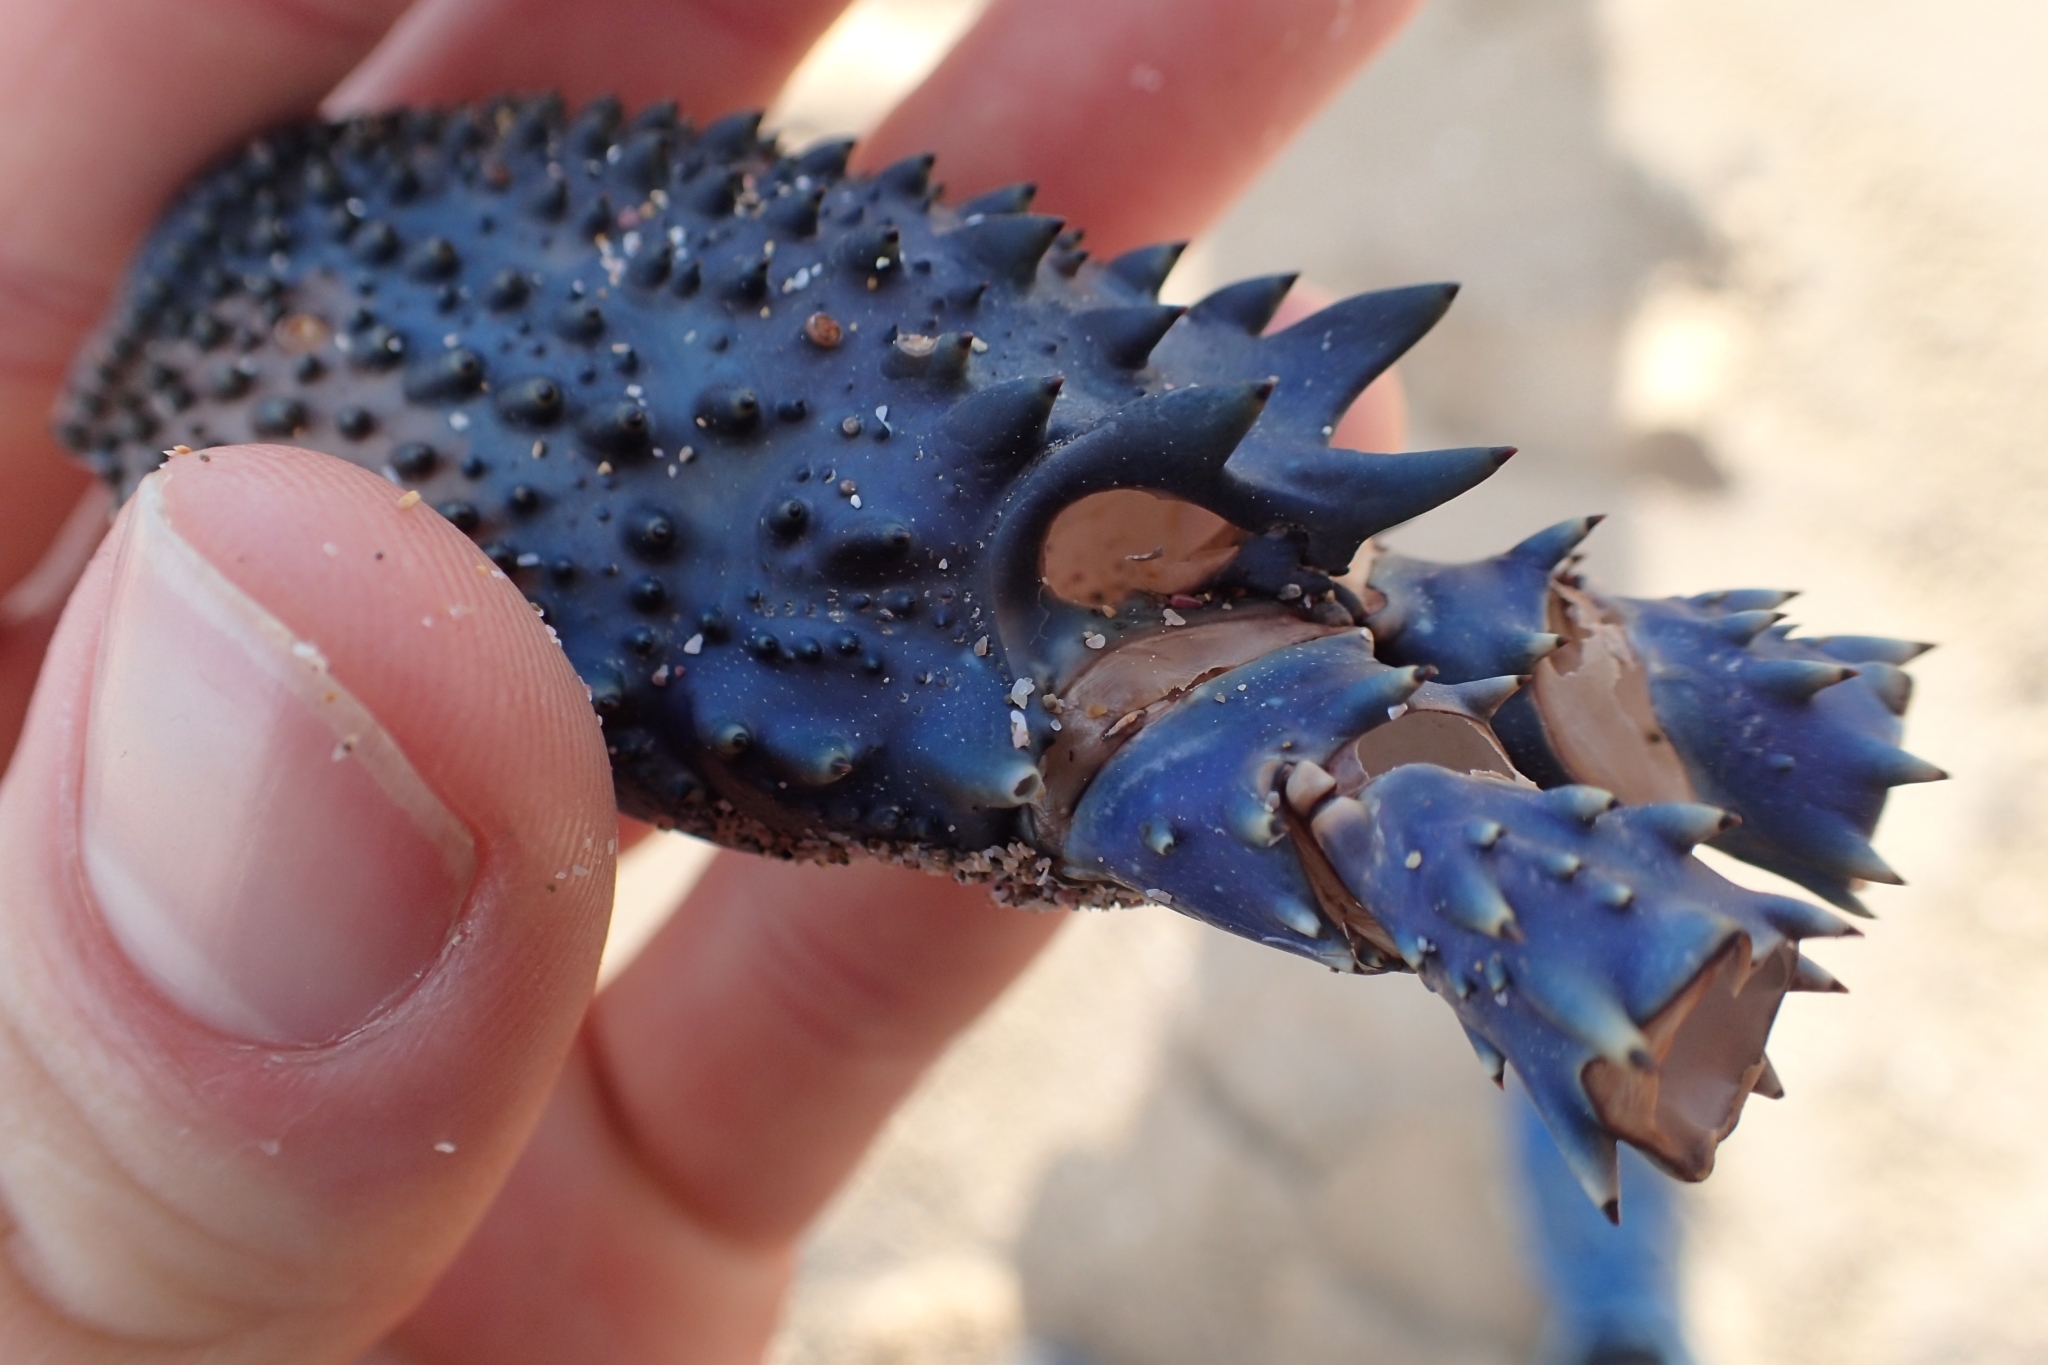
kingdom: Animalia
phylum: Arthropoda
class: Malacostraca
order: Decapoda
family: Palinuridae
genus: Sagmariasus
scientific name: Sagmariasus verreauxi
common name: Green rock lobster
